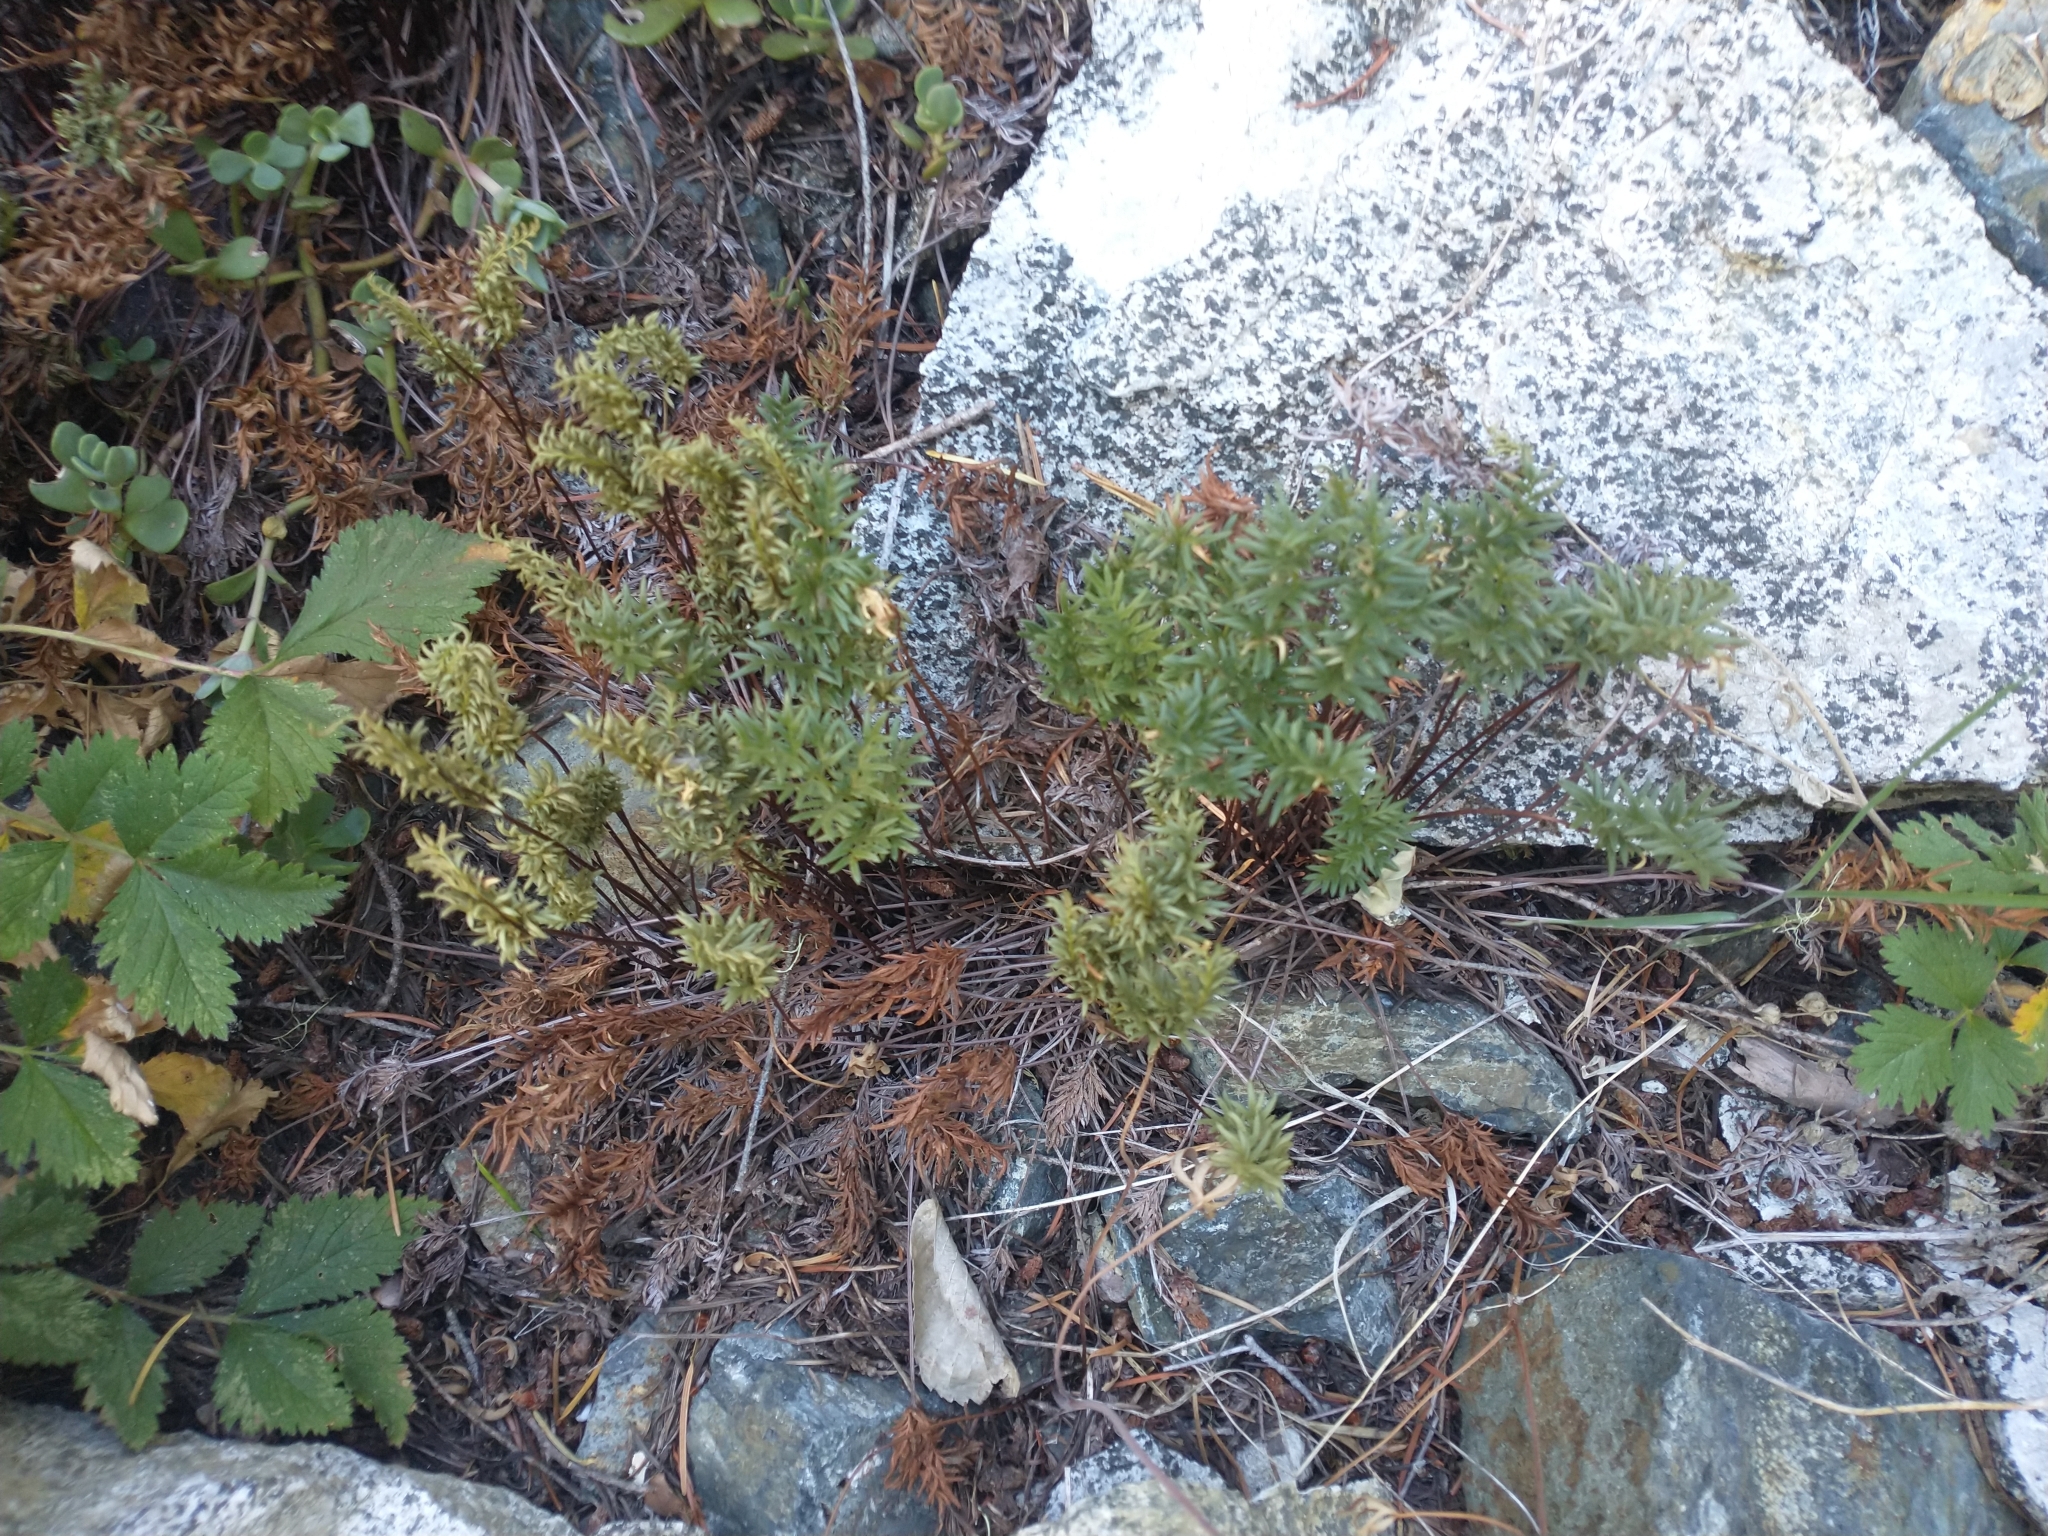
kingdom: Plantae
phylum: Tracheophyta
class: Polypodiopsida
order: Polypodiales
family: Pteridaceae
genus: Aspidotis
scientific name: Aspidotis densa
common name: Indian's dream
